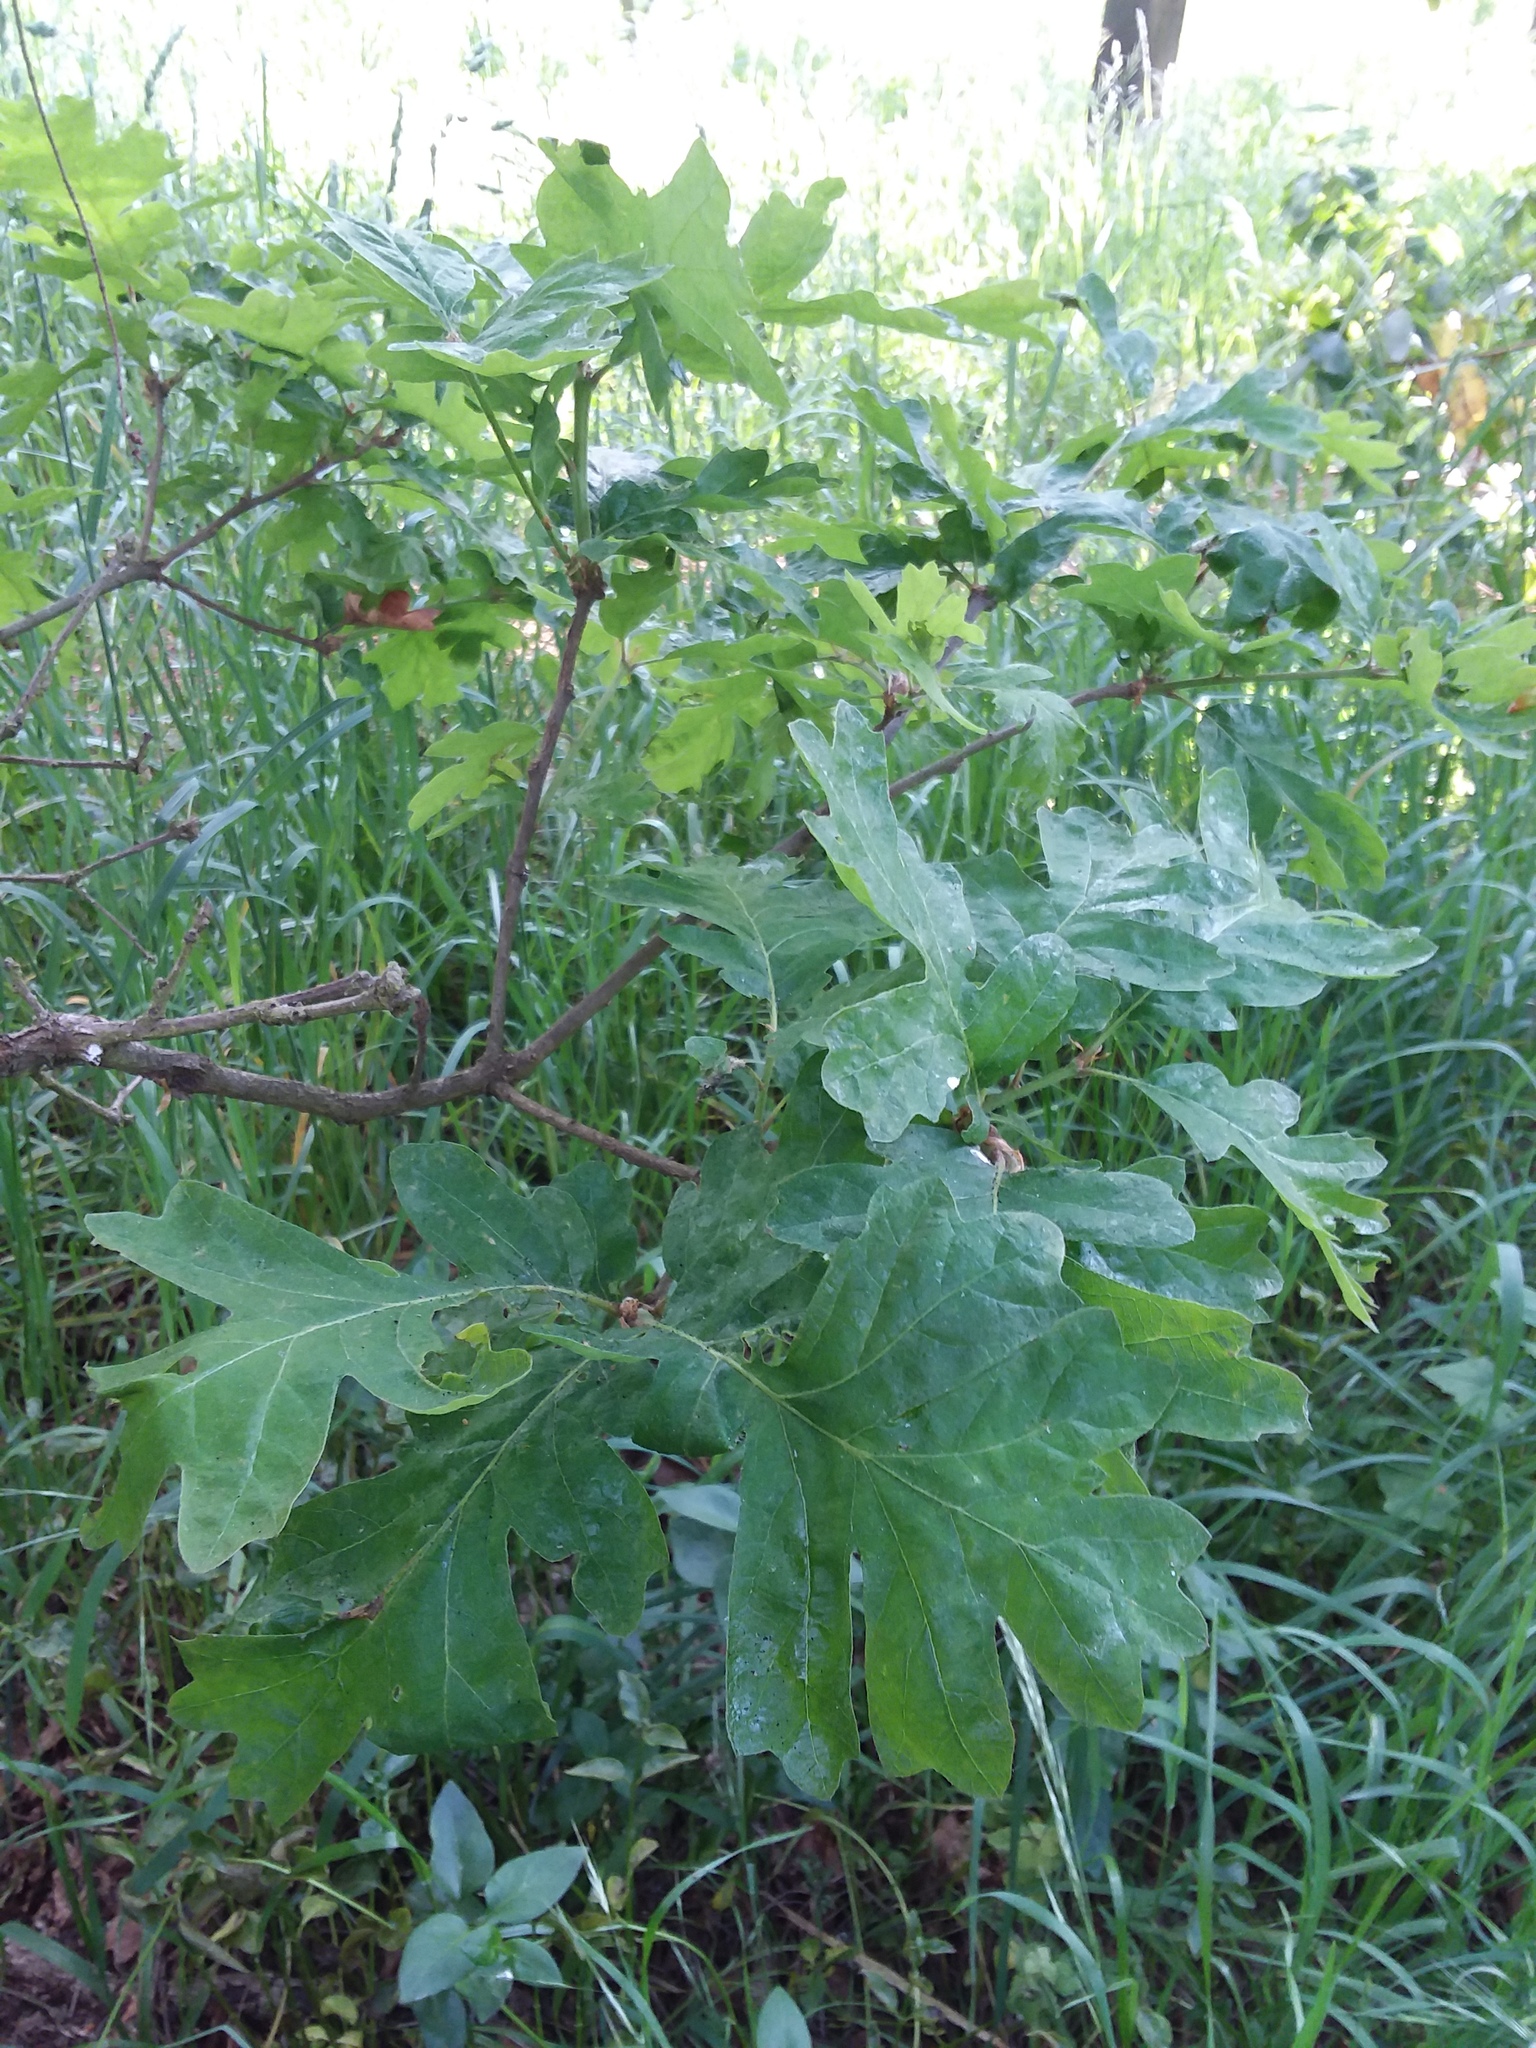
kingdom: Plantae
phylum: Tracheophyta
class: Magnoliopsida
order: Fagales
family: Fagaceae
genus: Quercus
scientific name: Quercus garryana
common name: Garry oak
